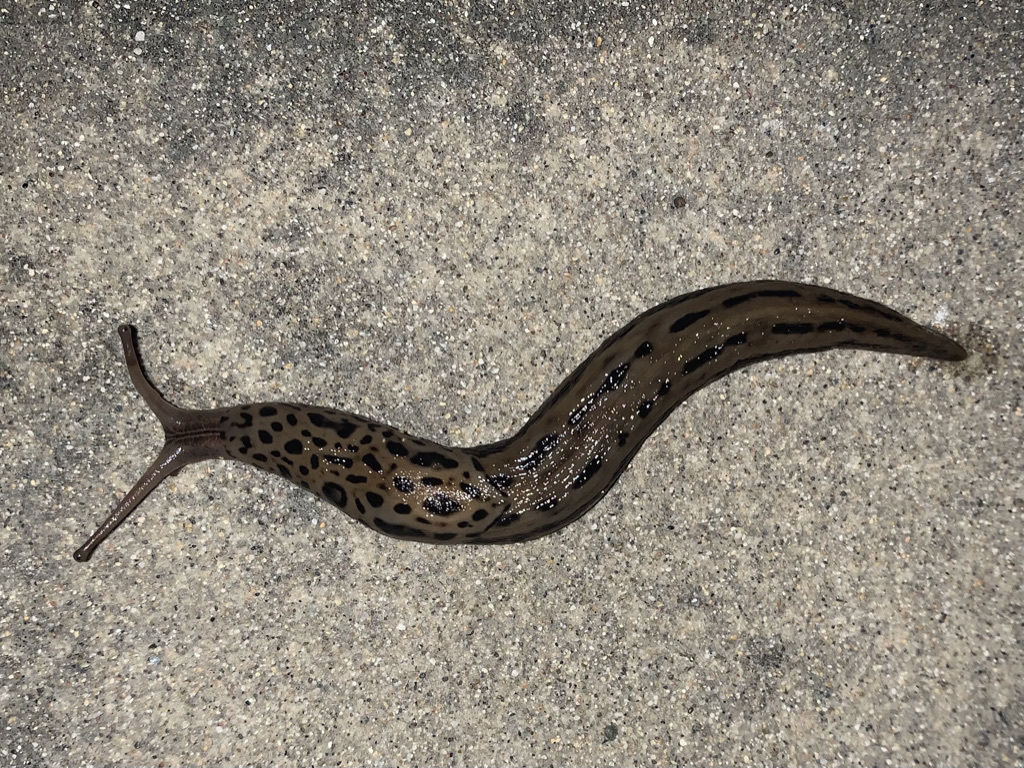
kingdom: Animalia
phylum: Mollusca
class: Gastropoda
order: Stylommatophora
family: Limacidae
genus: Limax
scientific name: Limax maximus
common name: Great grey slug
